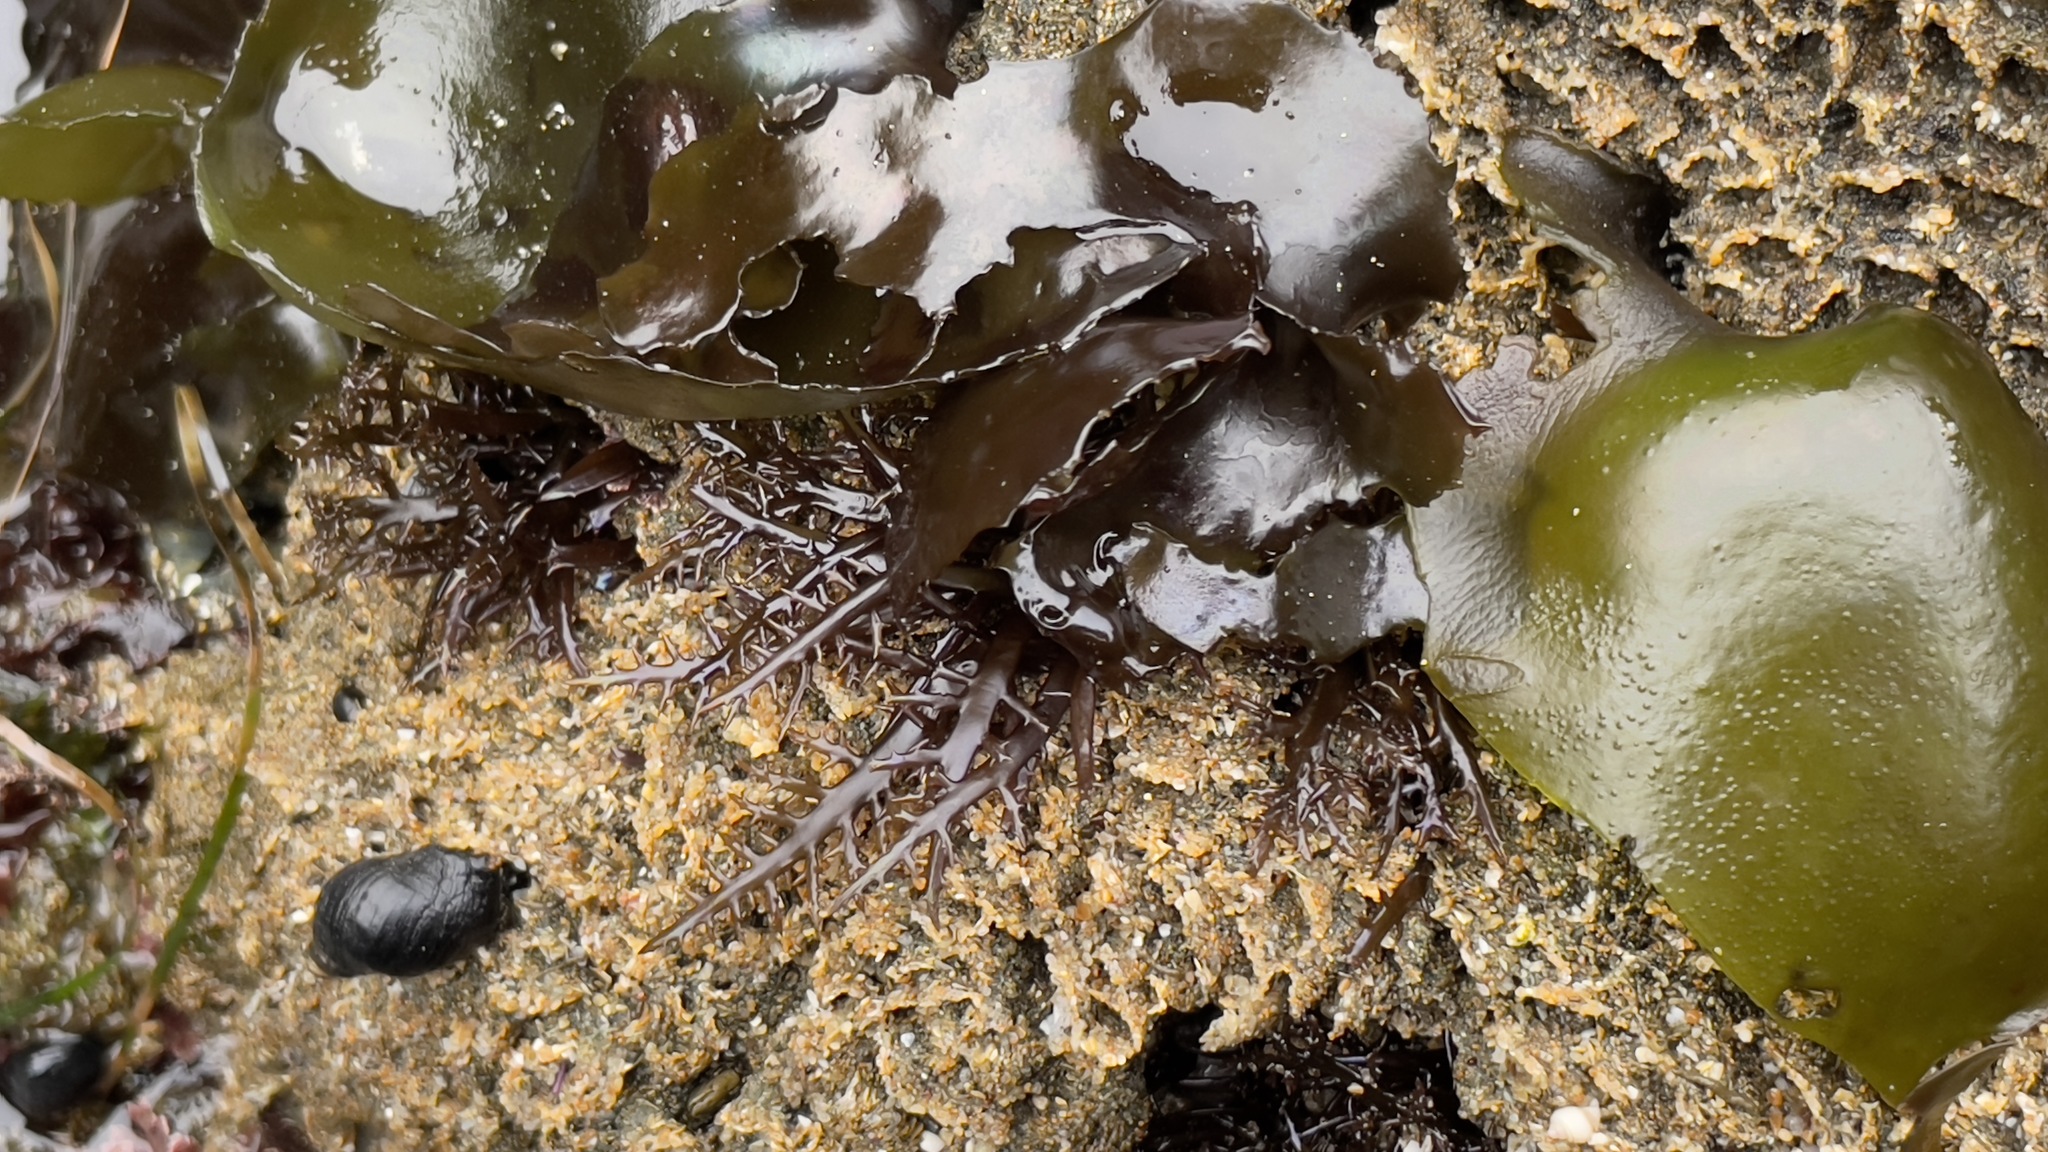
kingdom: Plantae
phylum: Rhodophyta
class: Florideophyceae
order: Gigartinales
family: Gigartinaceae
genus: Chondracanthus
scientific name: Chondracanthus canaliculatus
